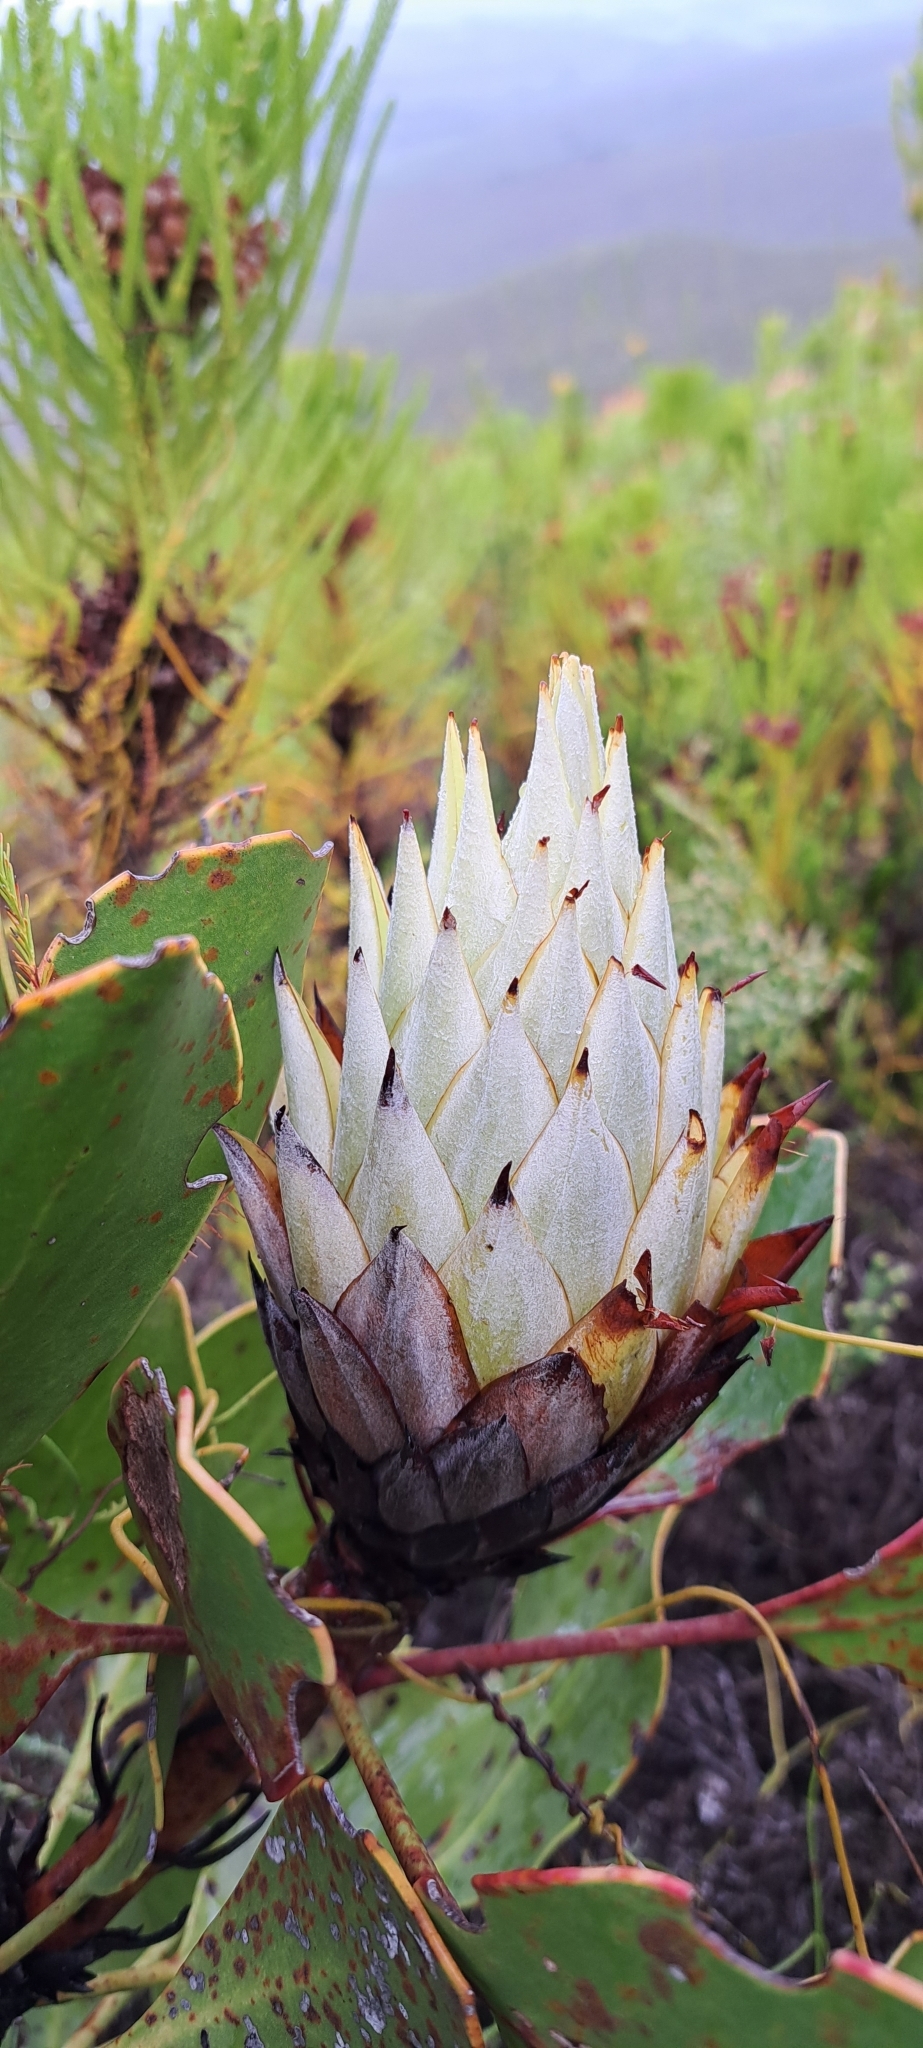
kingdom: Plantae
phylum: Tracheophyta
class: Magnoliopsida
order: Proteales
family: Proteaceae
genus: Protea
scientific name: Protea cynaroides
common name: King protea
